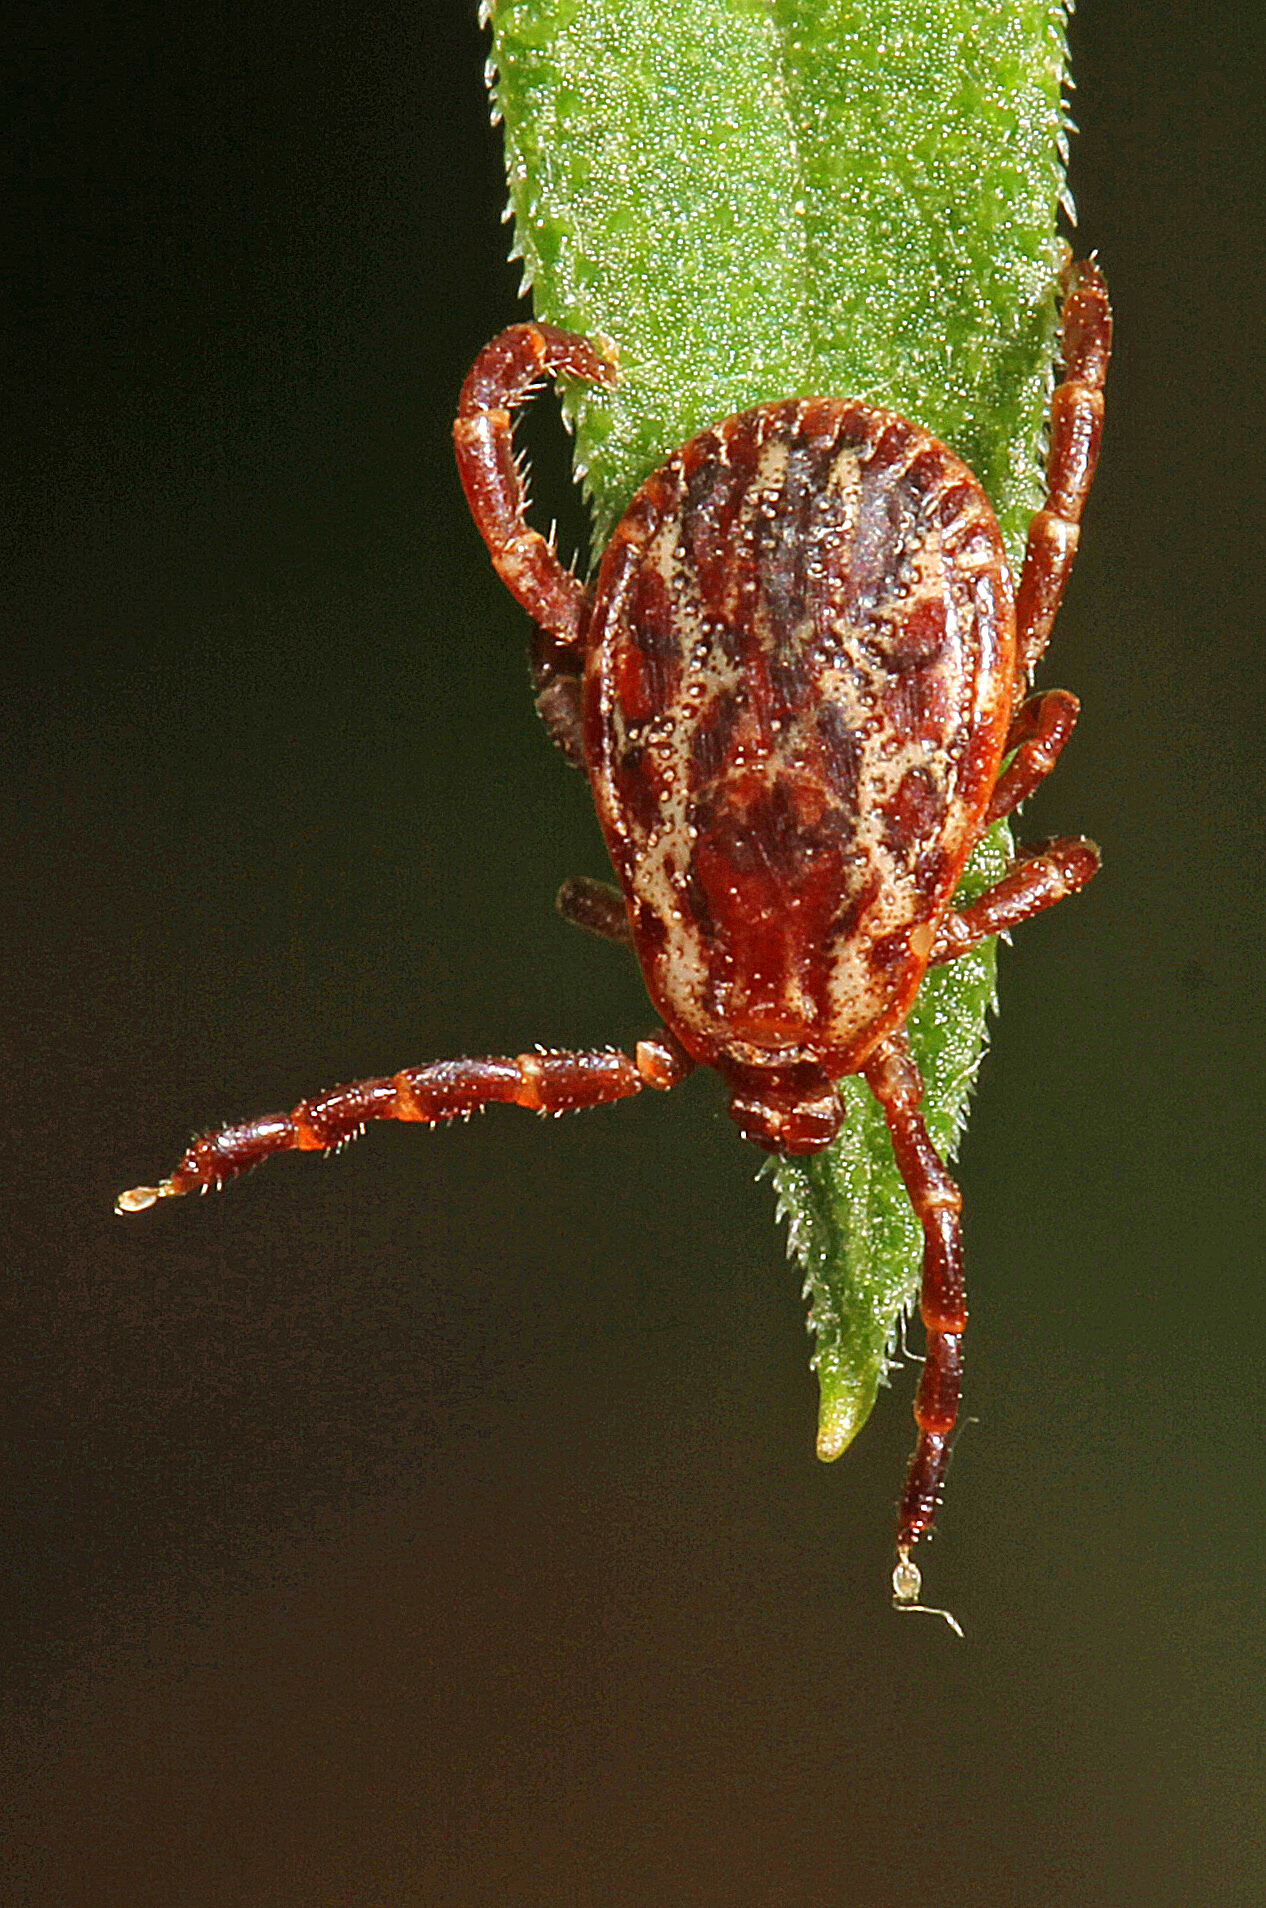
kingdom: Animalia
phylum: Arthropoda
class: Arachnida
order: Ixodida
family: Ixodidae
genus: Dermacentor
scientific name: Dermacentor variabilis
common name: American dog tick
